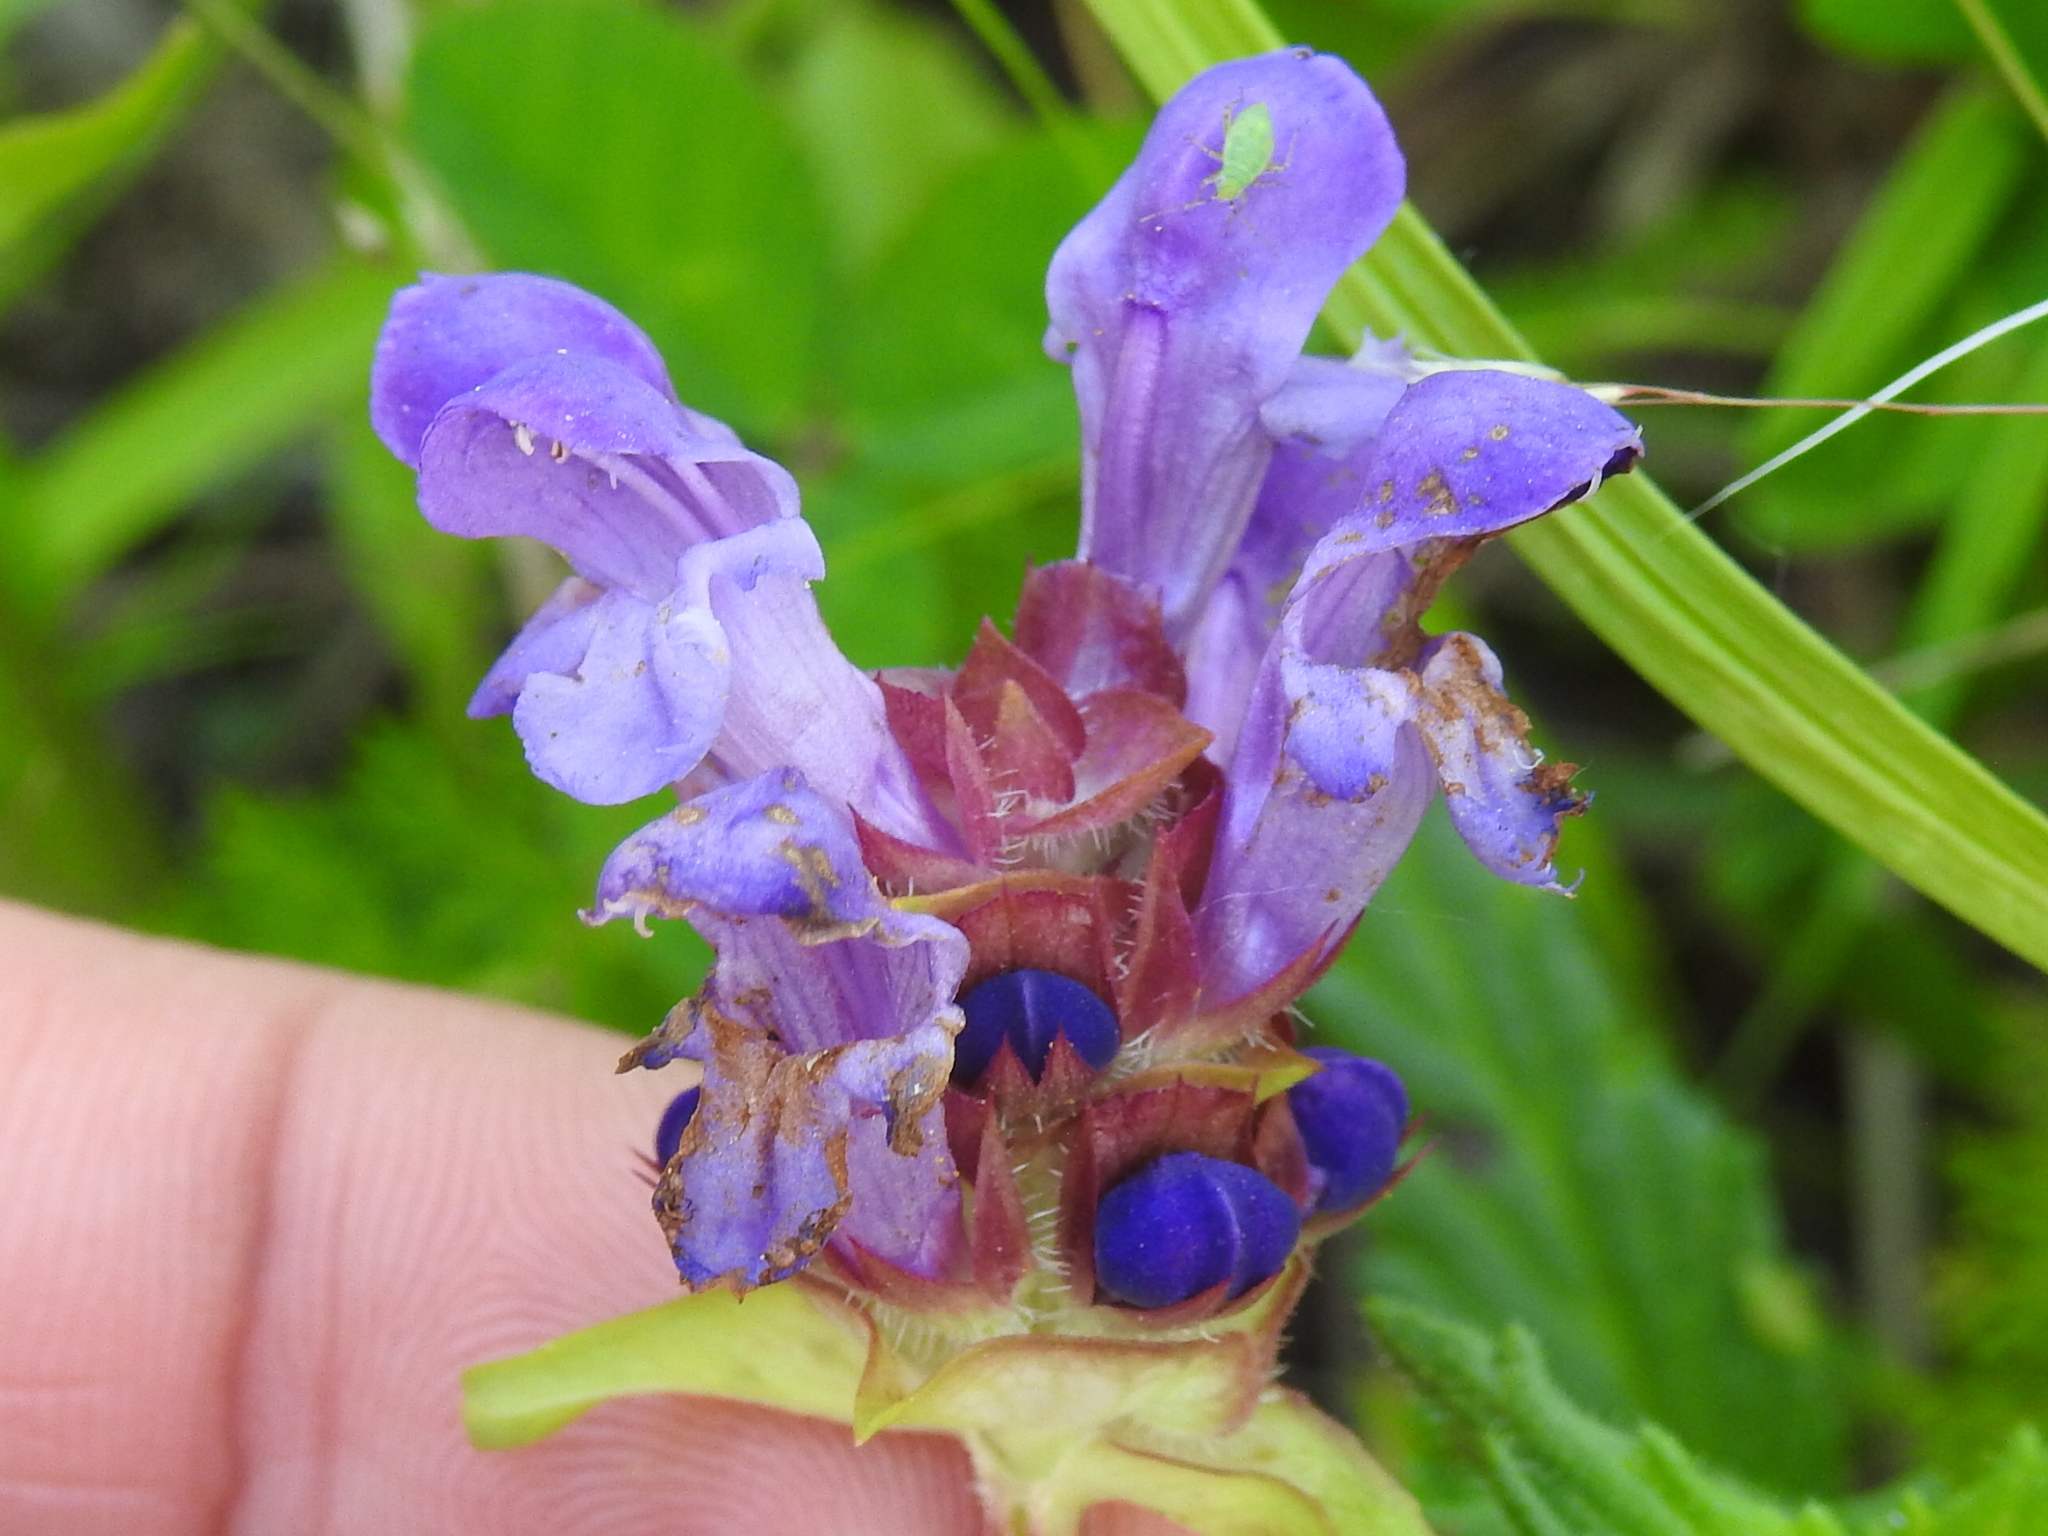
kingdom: Plantae
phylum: Tracheophyta
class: Magnoliopsida
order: Lamiales
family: Lamiaceae
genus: Prunella
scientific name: Prunella vulgaris
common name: Heal-all
